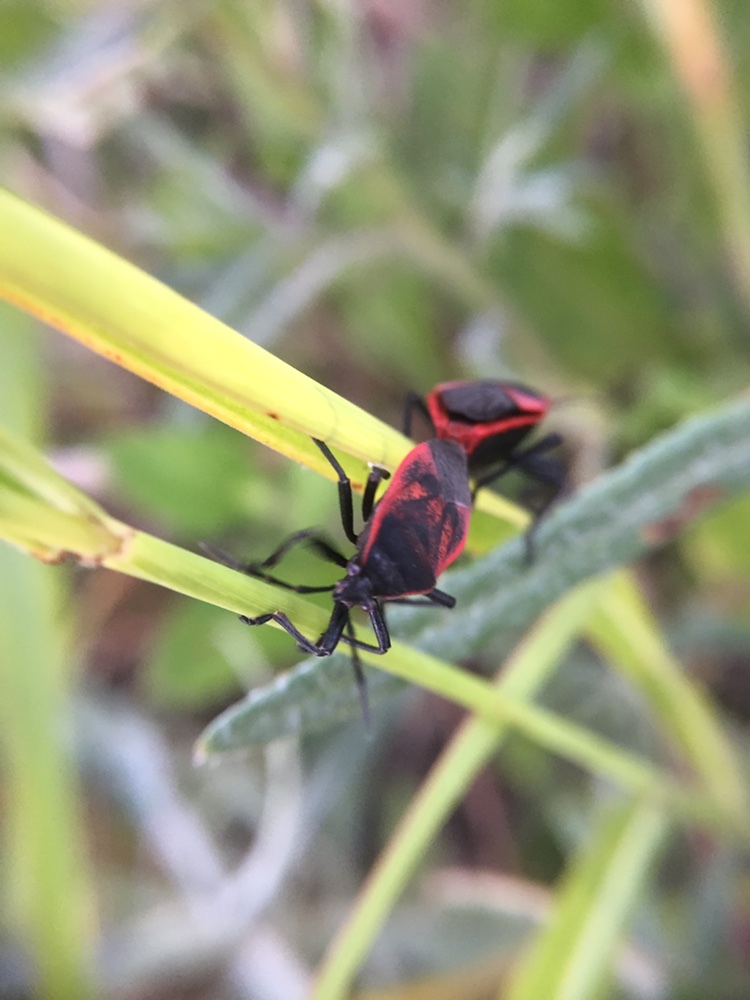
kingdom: Animalia
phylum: Arthropoda
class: Insecta
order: Hemiptera
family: Largidae
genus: Largus
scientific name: Largus rufipennis
